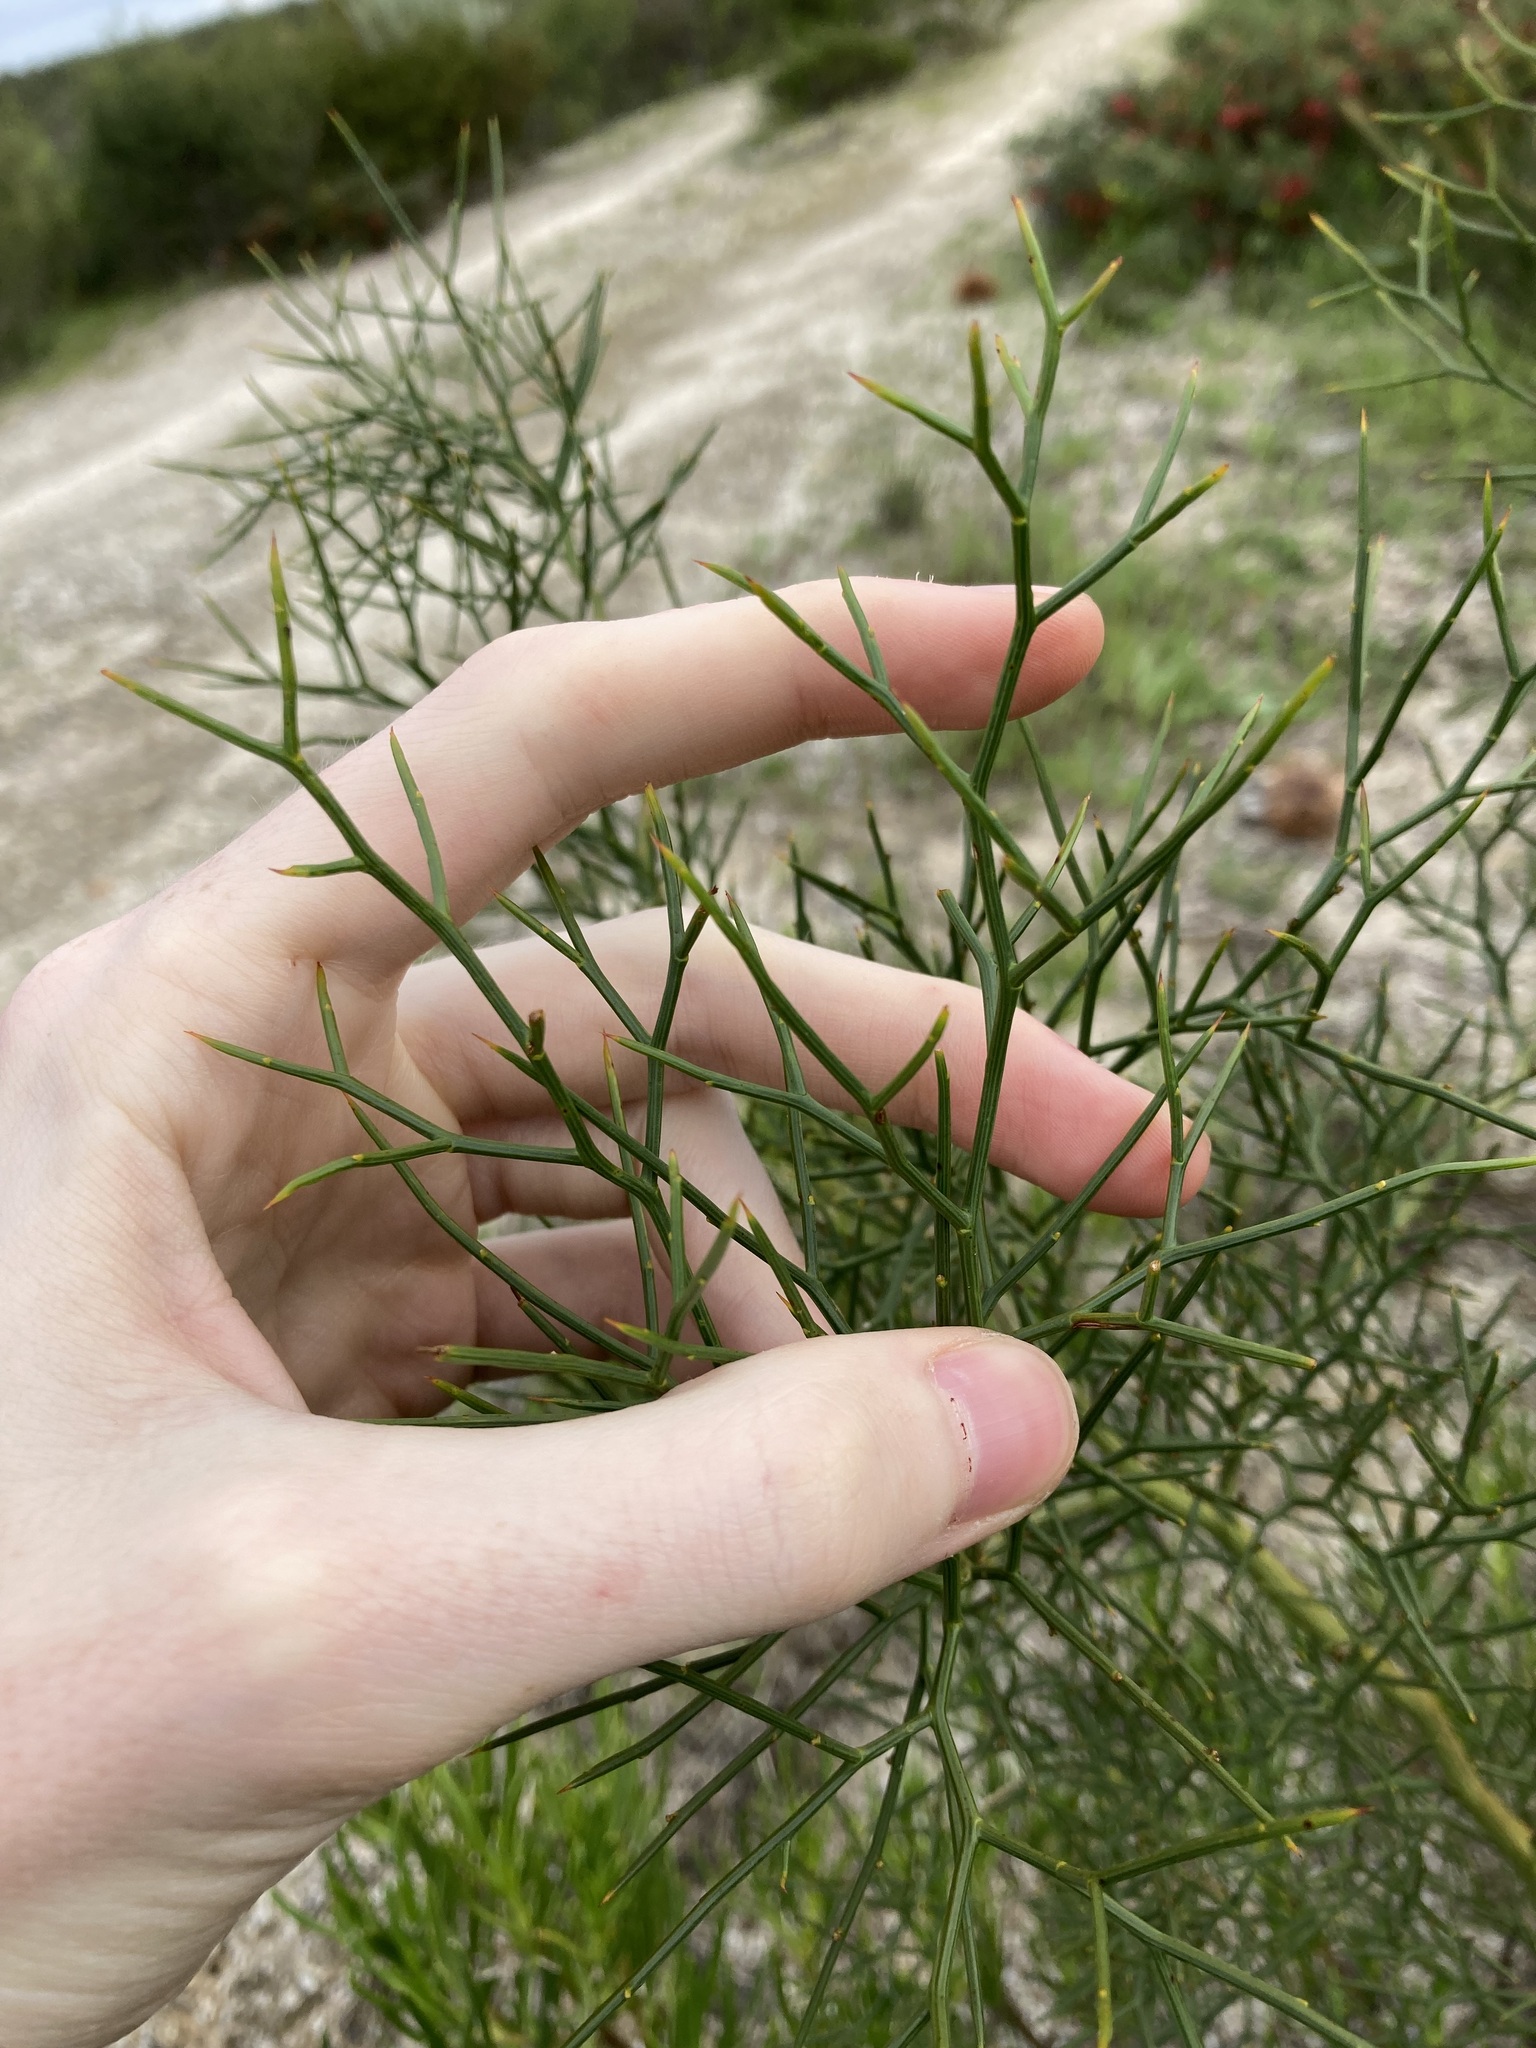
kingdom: Plantae
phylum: Tracheophyta
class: Magnoliopsida
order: Fabales
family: Fabaceae
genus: Daviesia
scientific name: Daviesia divaricata
